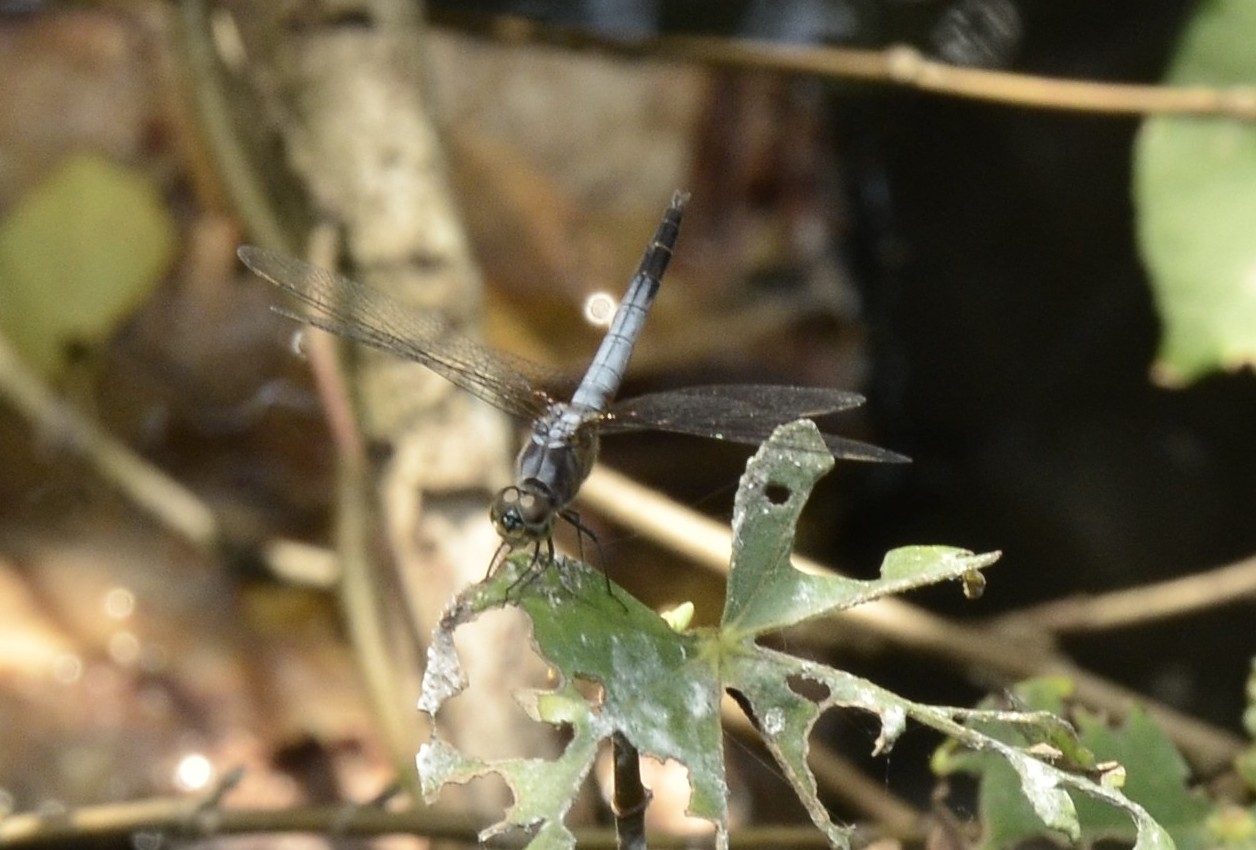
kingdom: Animalia
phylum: Arthropoda
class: Insecta
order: Odonata
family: Libellulidae
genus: Brachydiplax
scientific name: Brachydiplax chalybea
